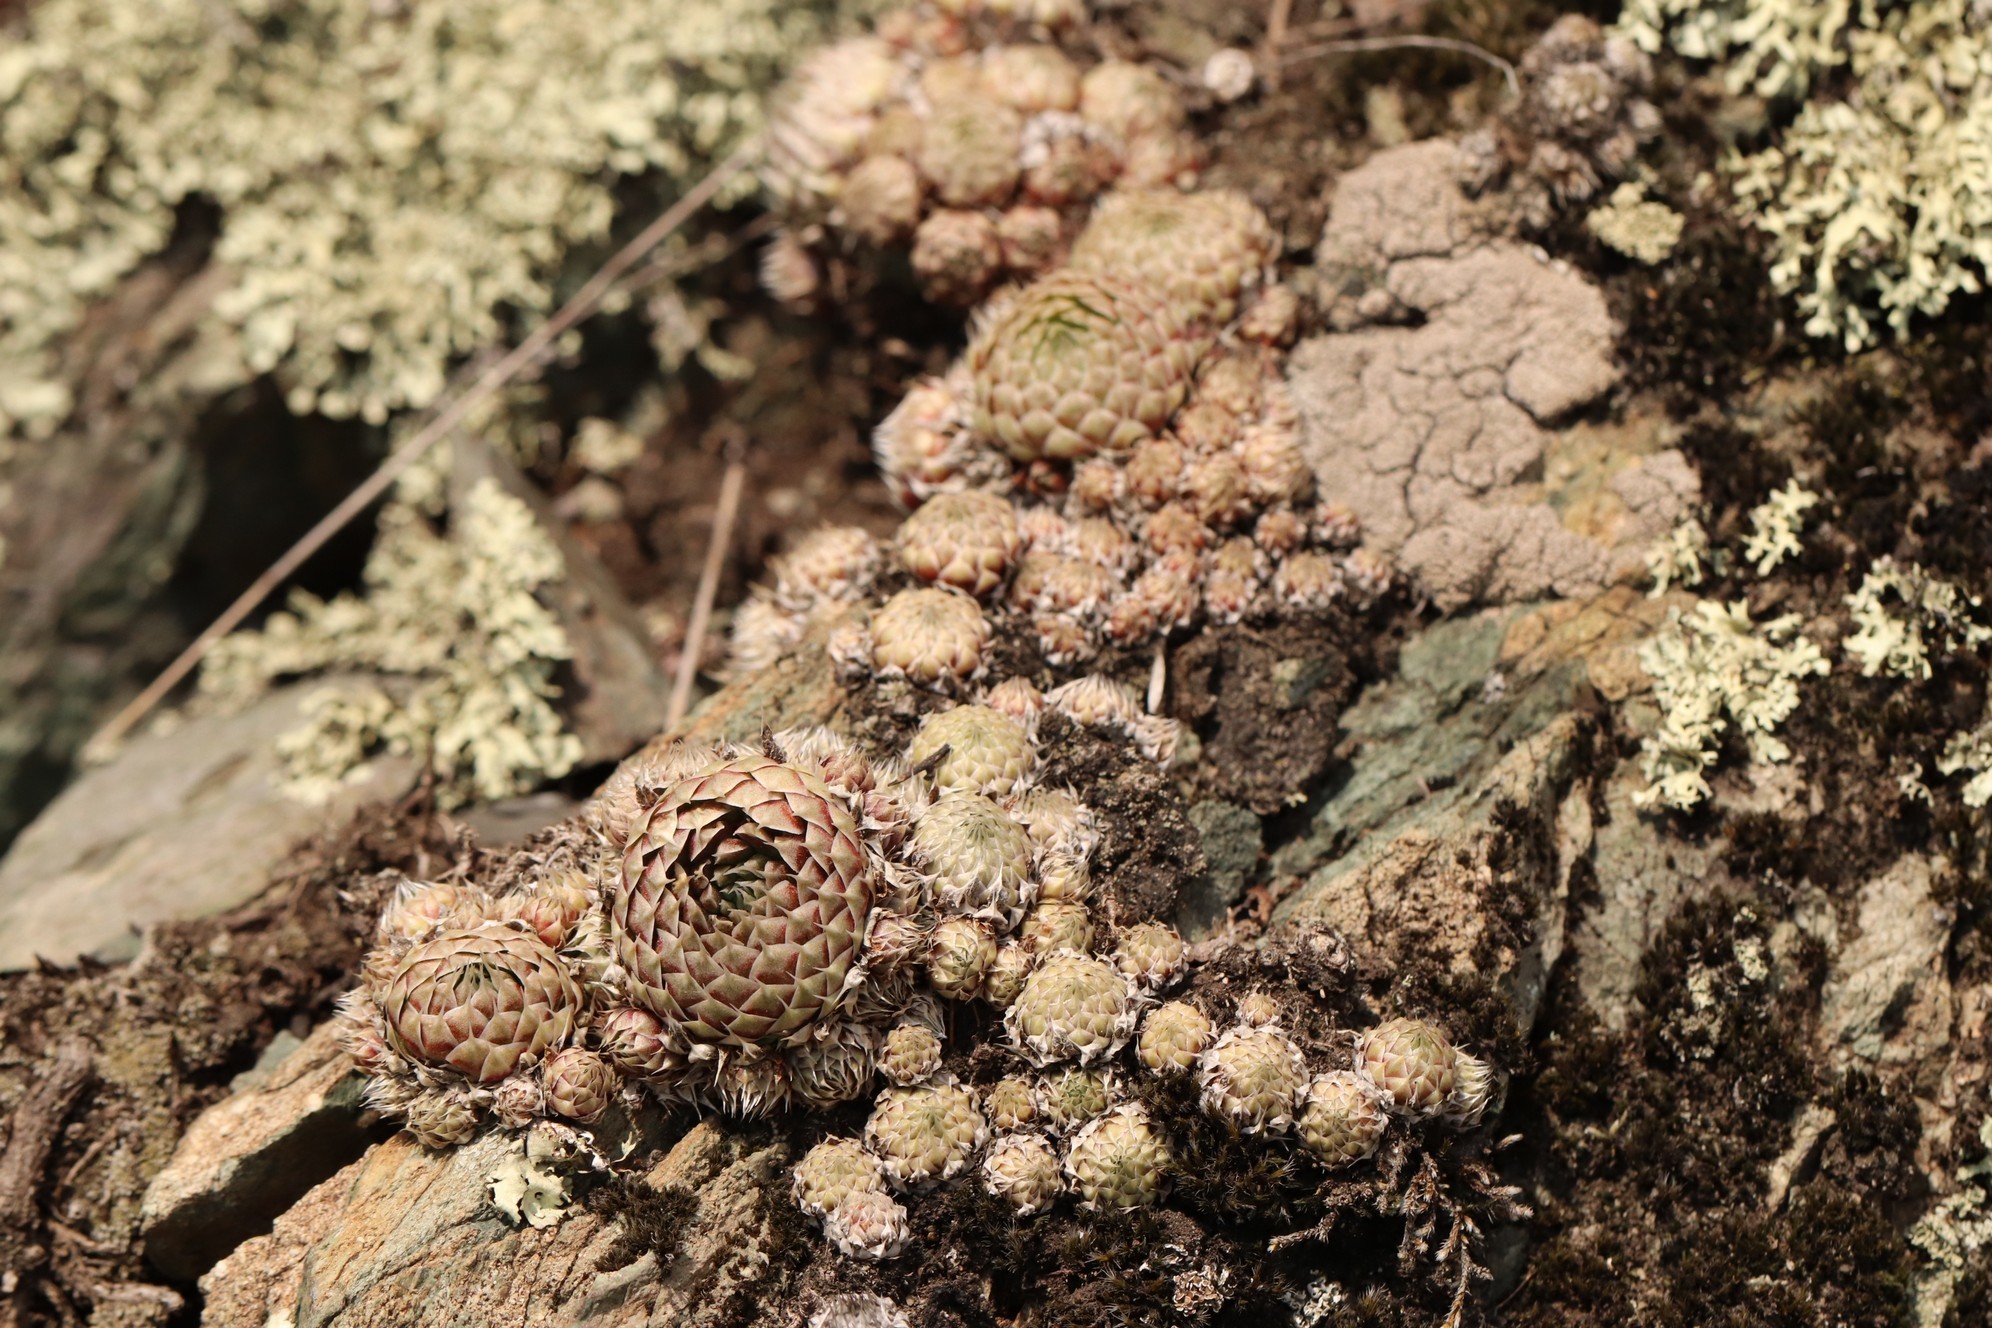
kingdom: Plantae
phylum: Tracheophyta
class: Magnoliopsida
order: Saxifragales
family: Crassulaceae
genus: Orostachys
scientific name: Orostachys spinosa
